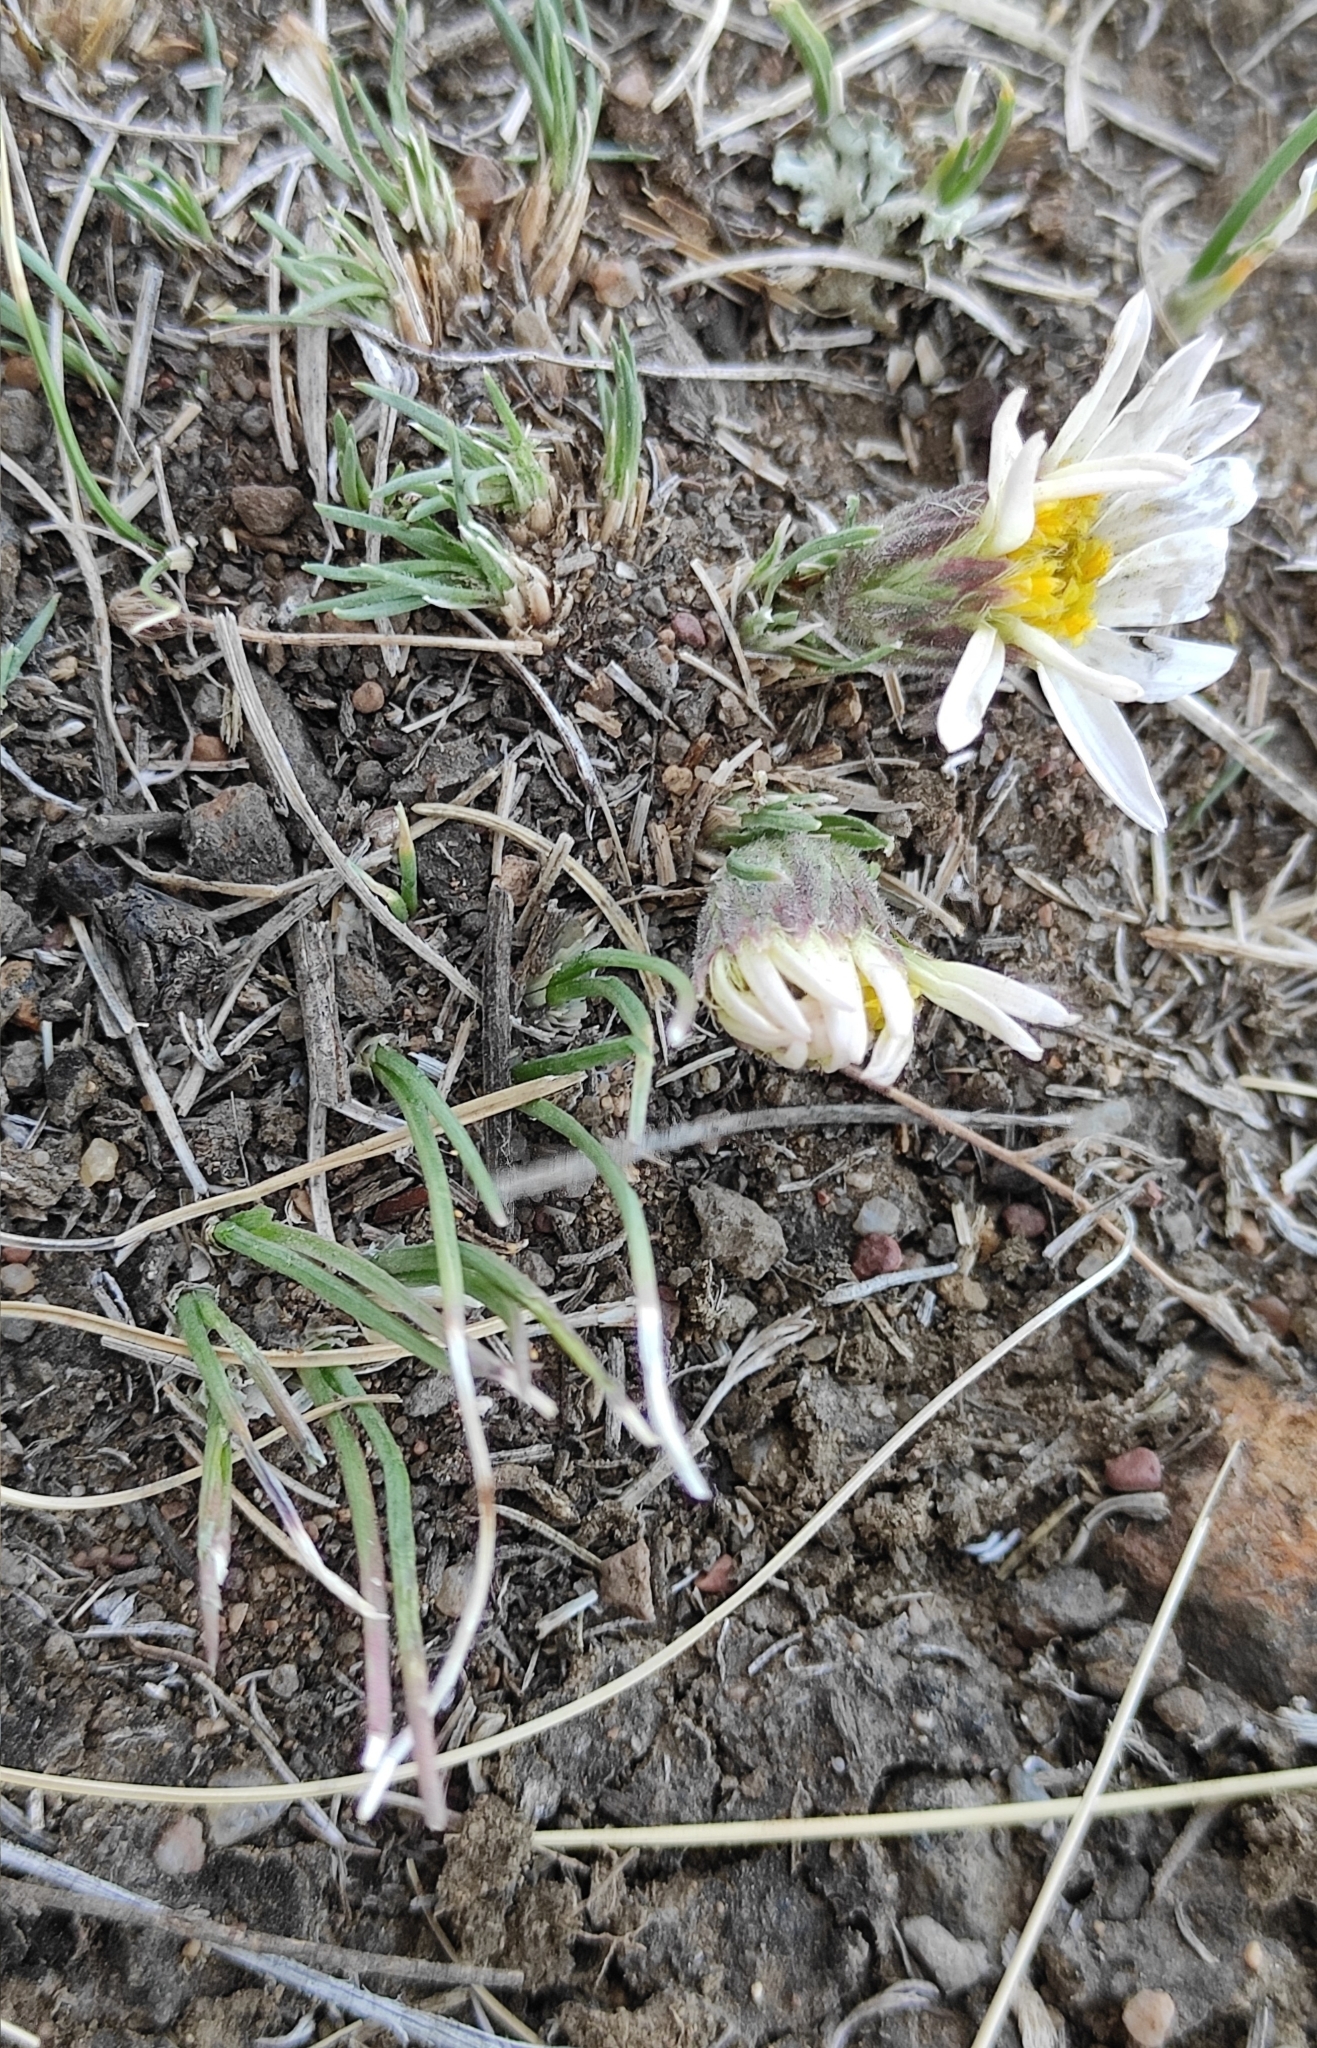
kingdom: Plantae
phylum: Tracheophyta
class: Magnoliopsida
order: Asterales
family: Asteraceae
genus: Arctogeron
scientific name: Arctogeron gramineum
